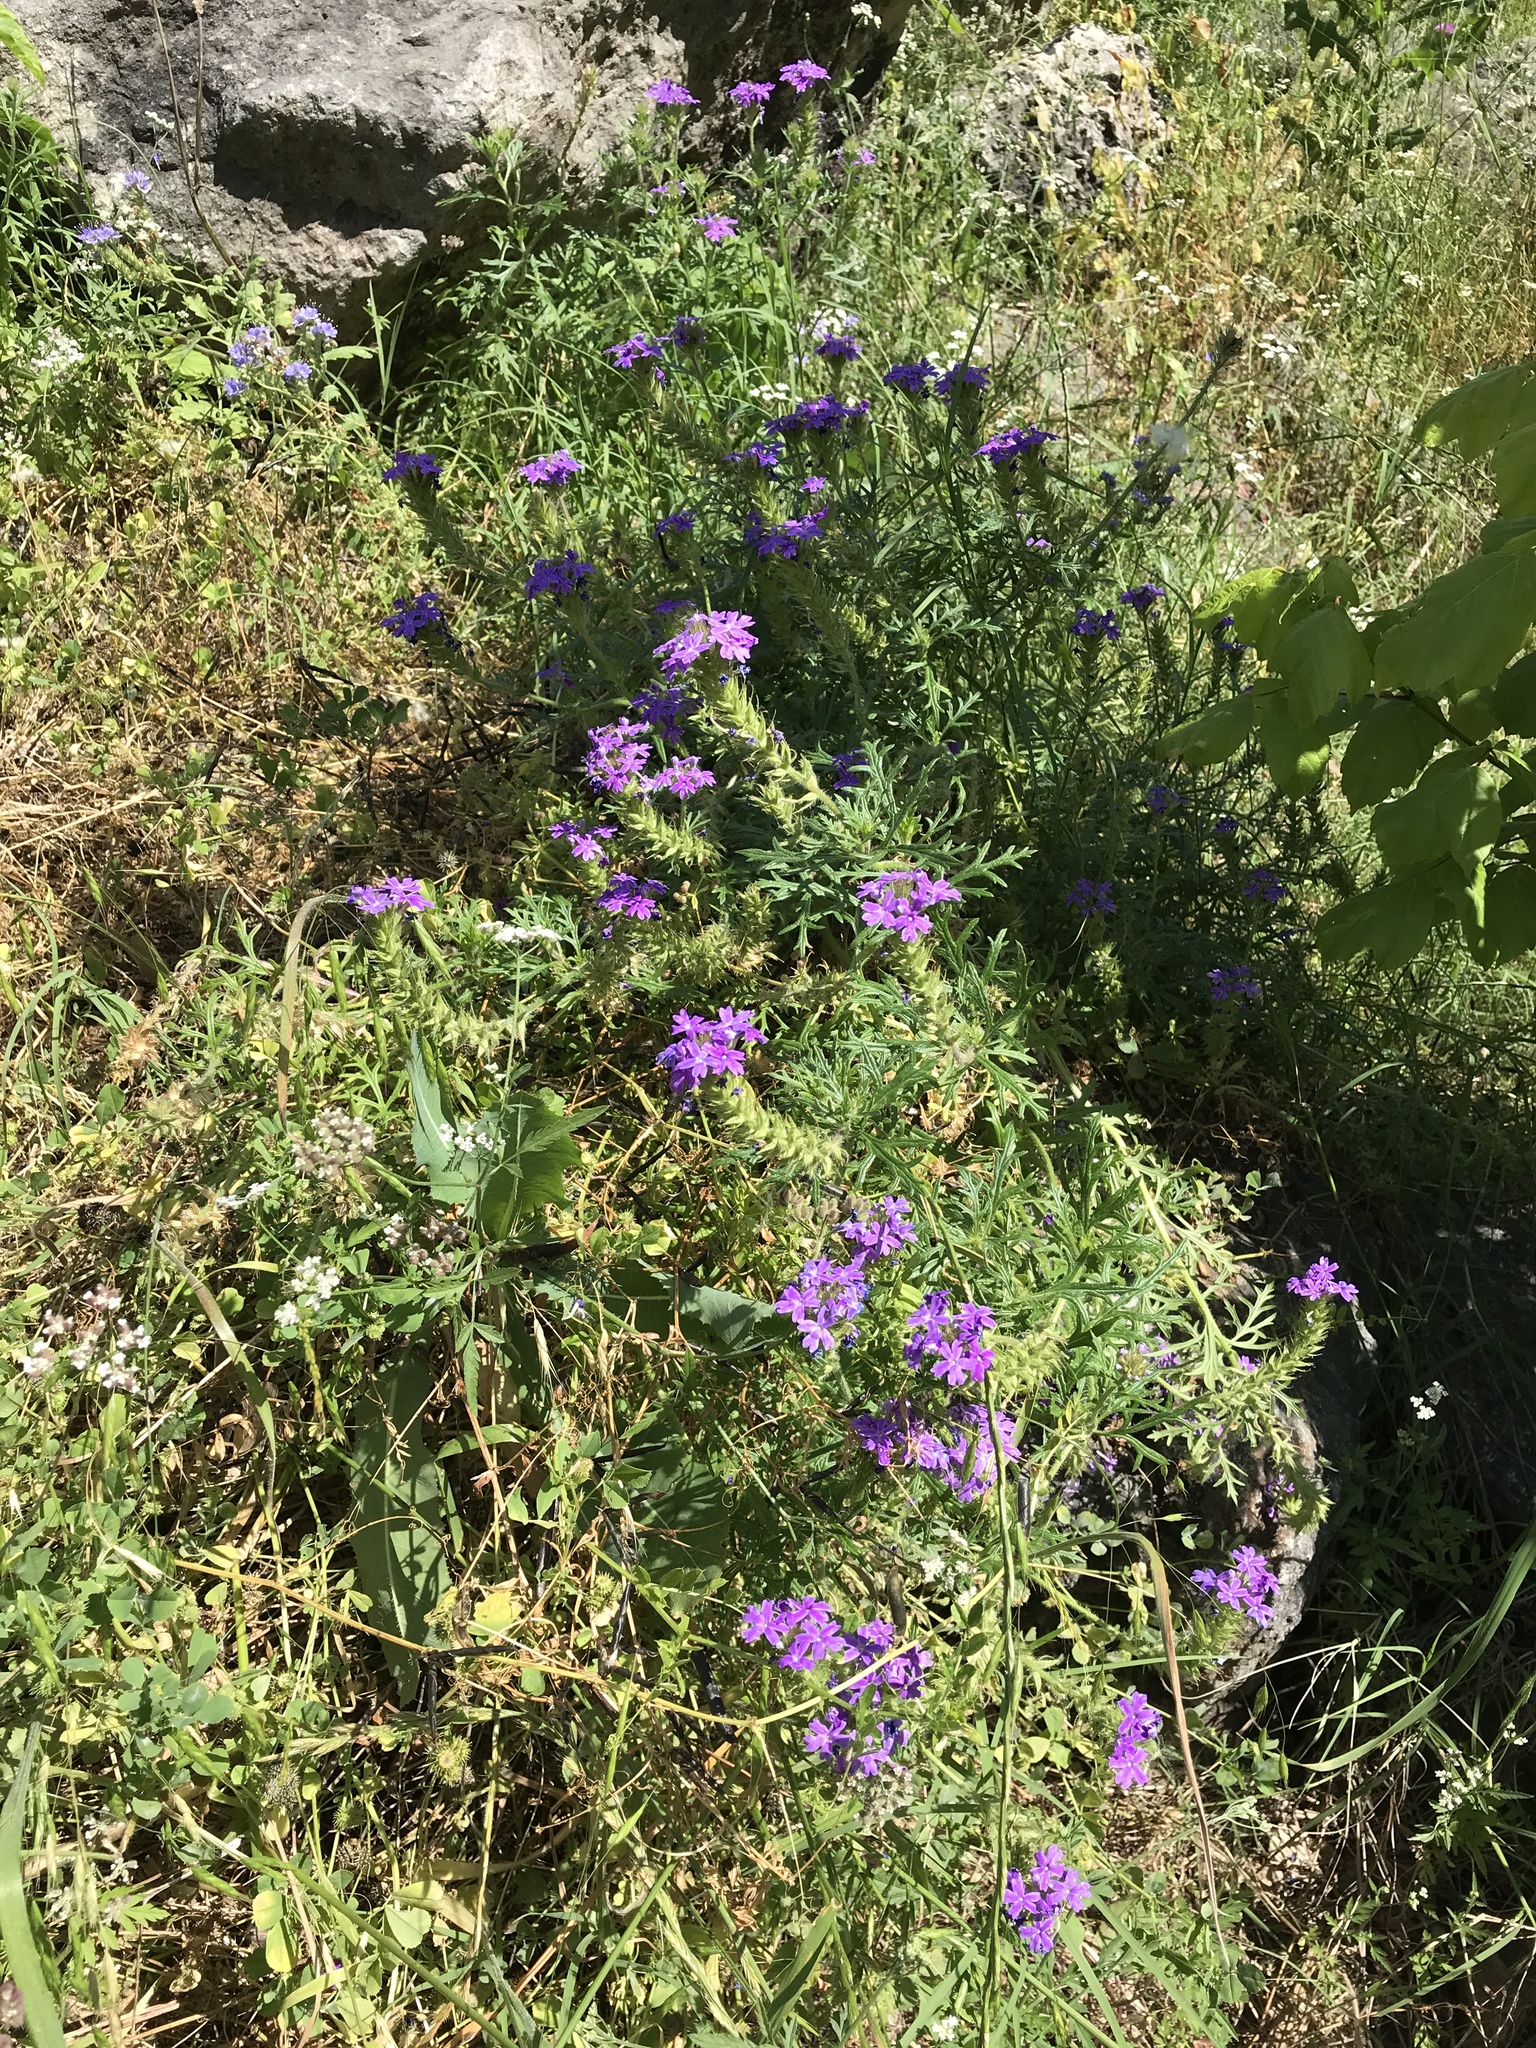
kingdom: Plantae
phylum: Tracheophyta
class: Magnoliopsida
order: Lamiales
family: Verbenaceae
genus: Verbena
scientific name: Verbena bipinnatifida
